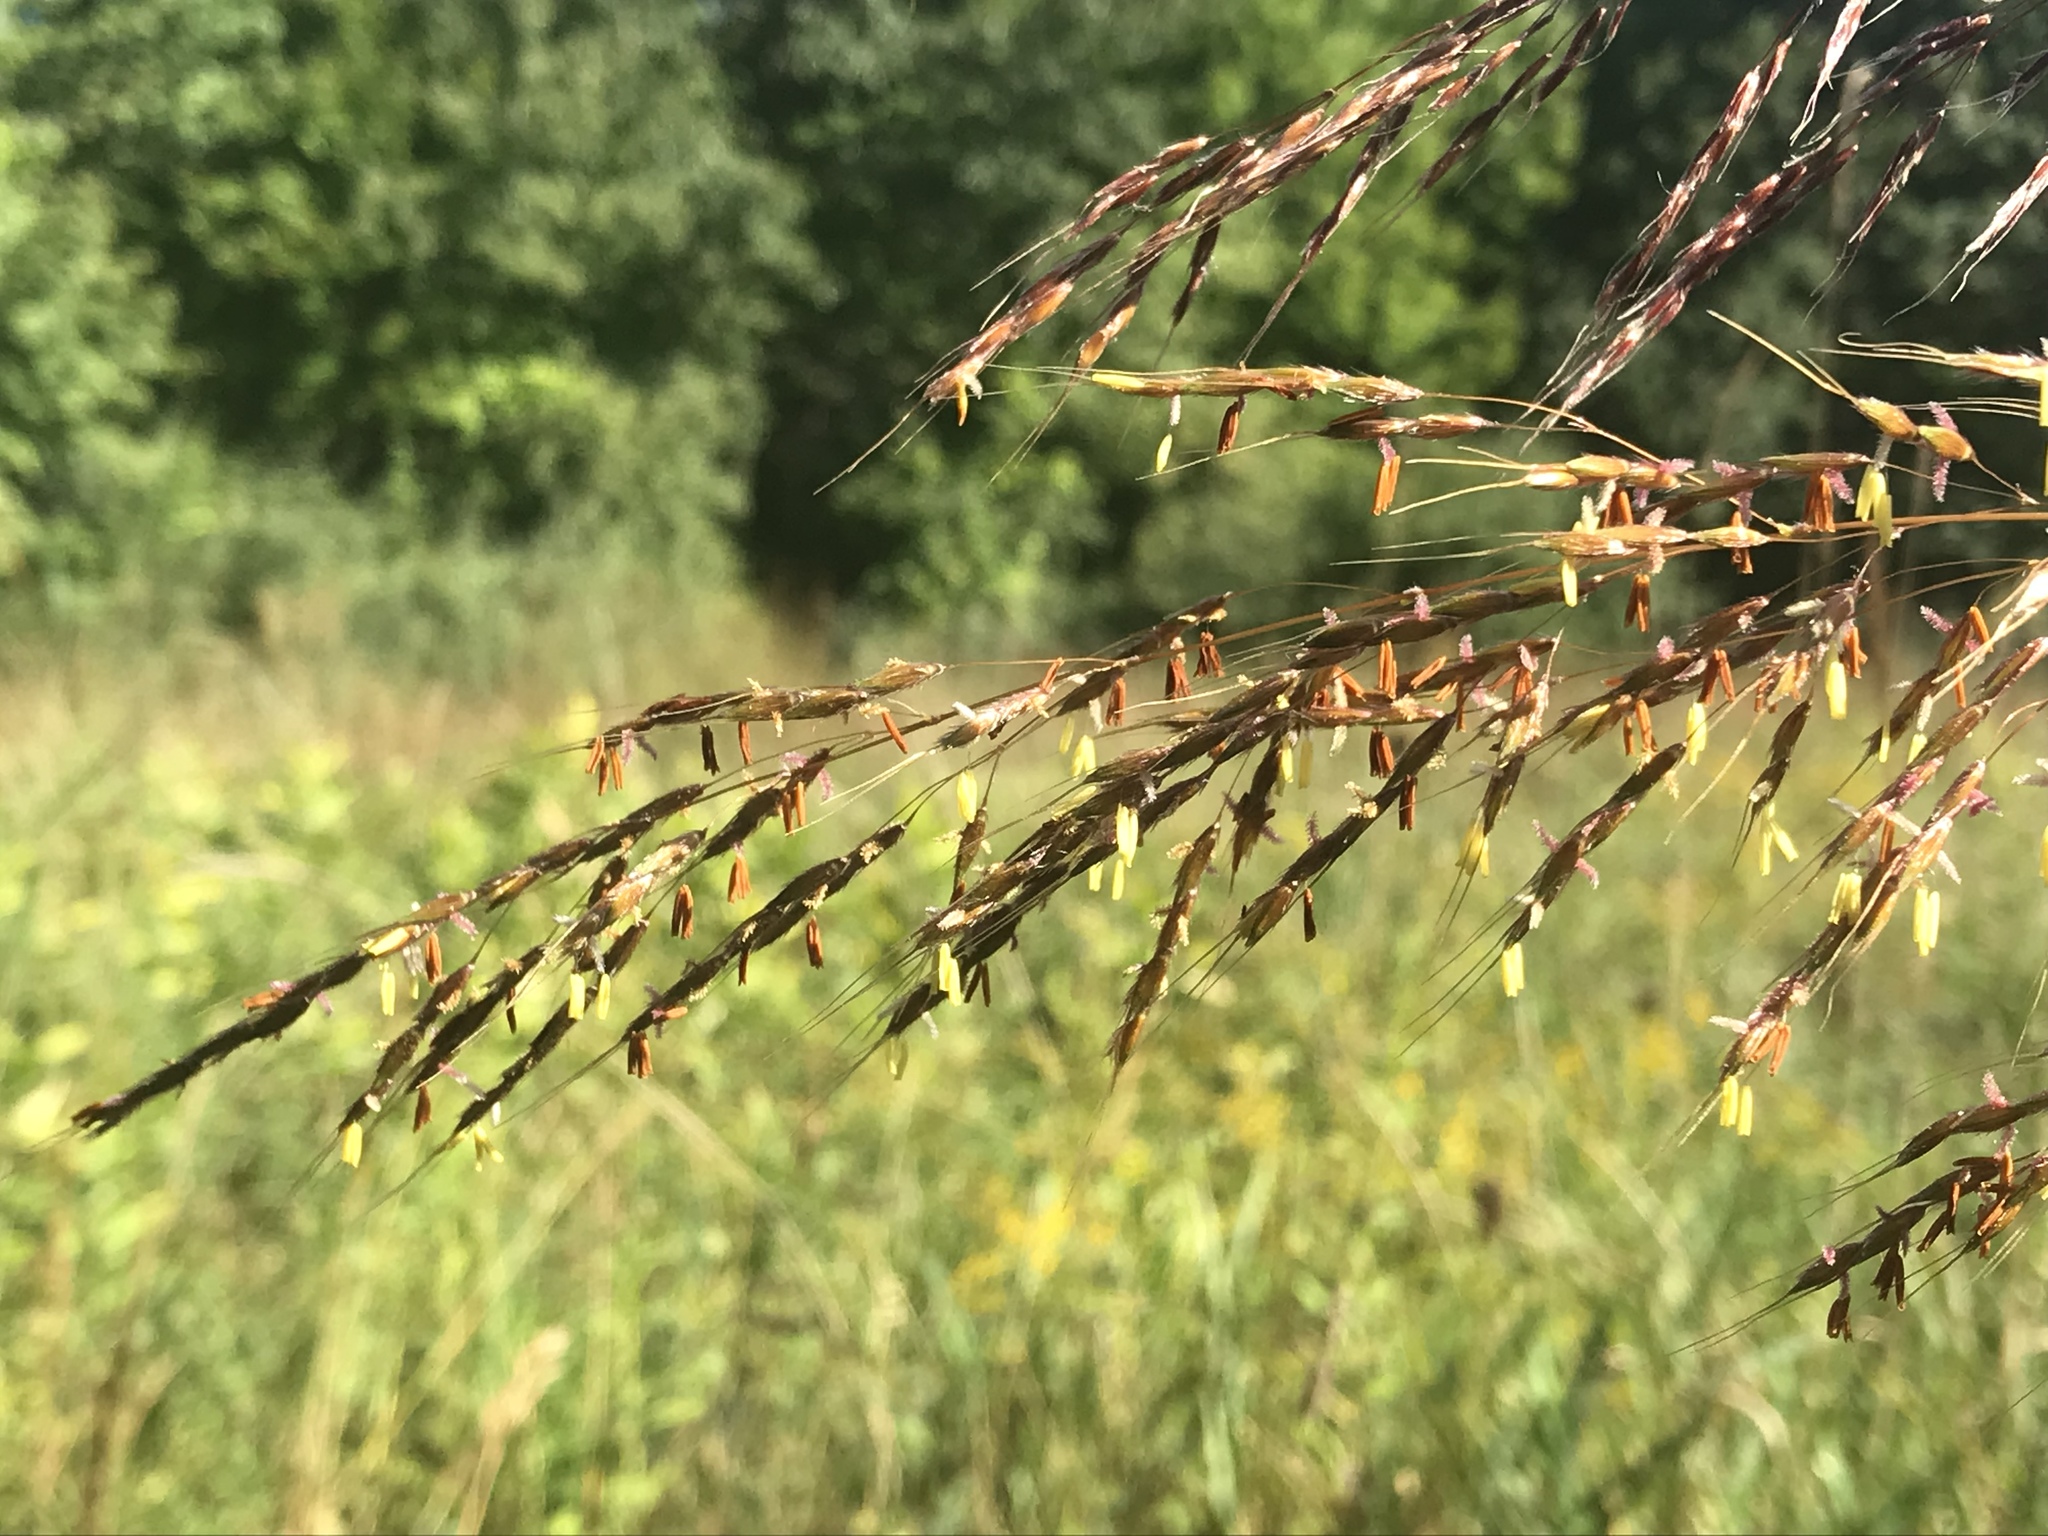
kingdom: Plantae
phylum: Tracheophyta
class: Liliopsida
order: Poales
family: Poaceae
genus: Sorghastrum
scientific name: Sorghastrum nutans
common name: Indian grass
